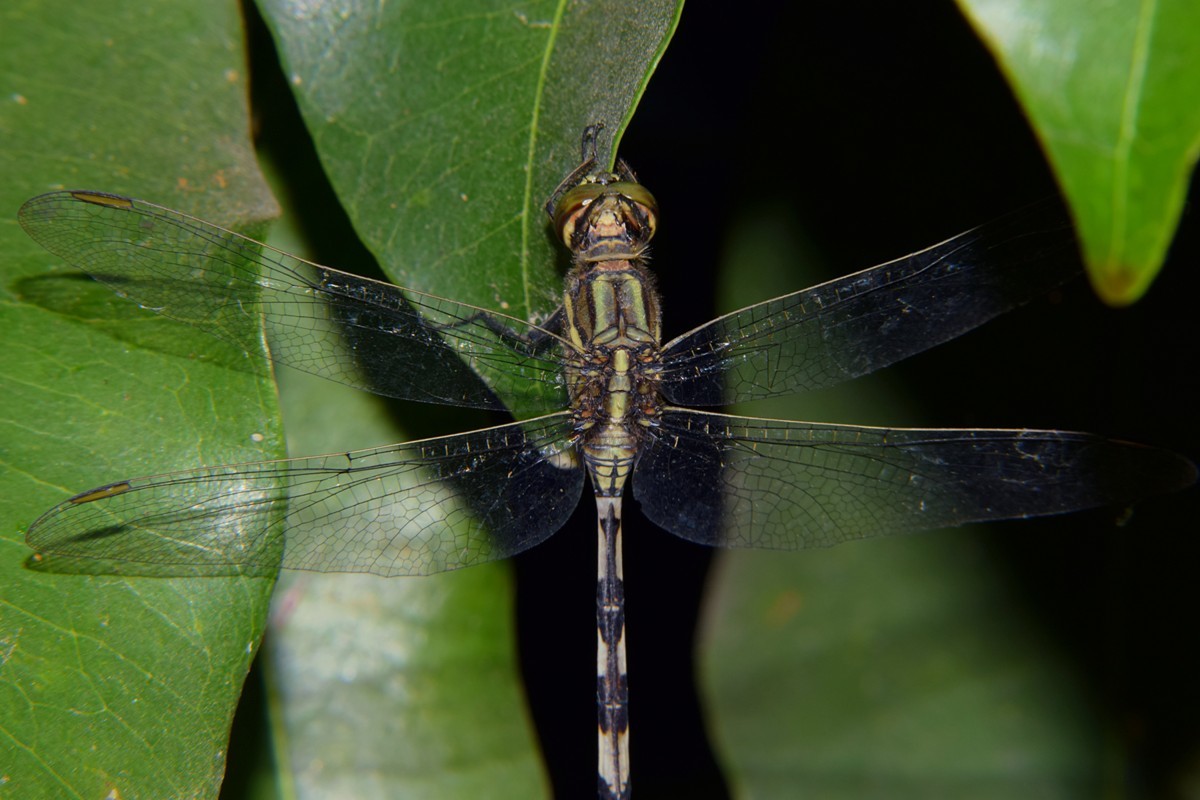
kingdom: Animalia
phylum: Arthropoda
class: Insecta
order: Odonata
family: Libellulidae
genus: Orthetrum
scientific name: Orthetrum sabina
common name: Slender skimmer
